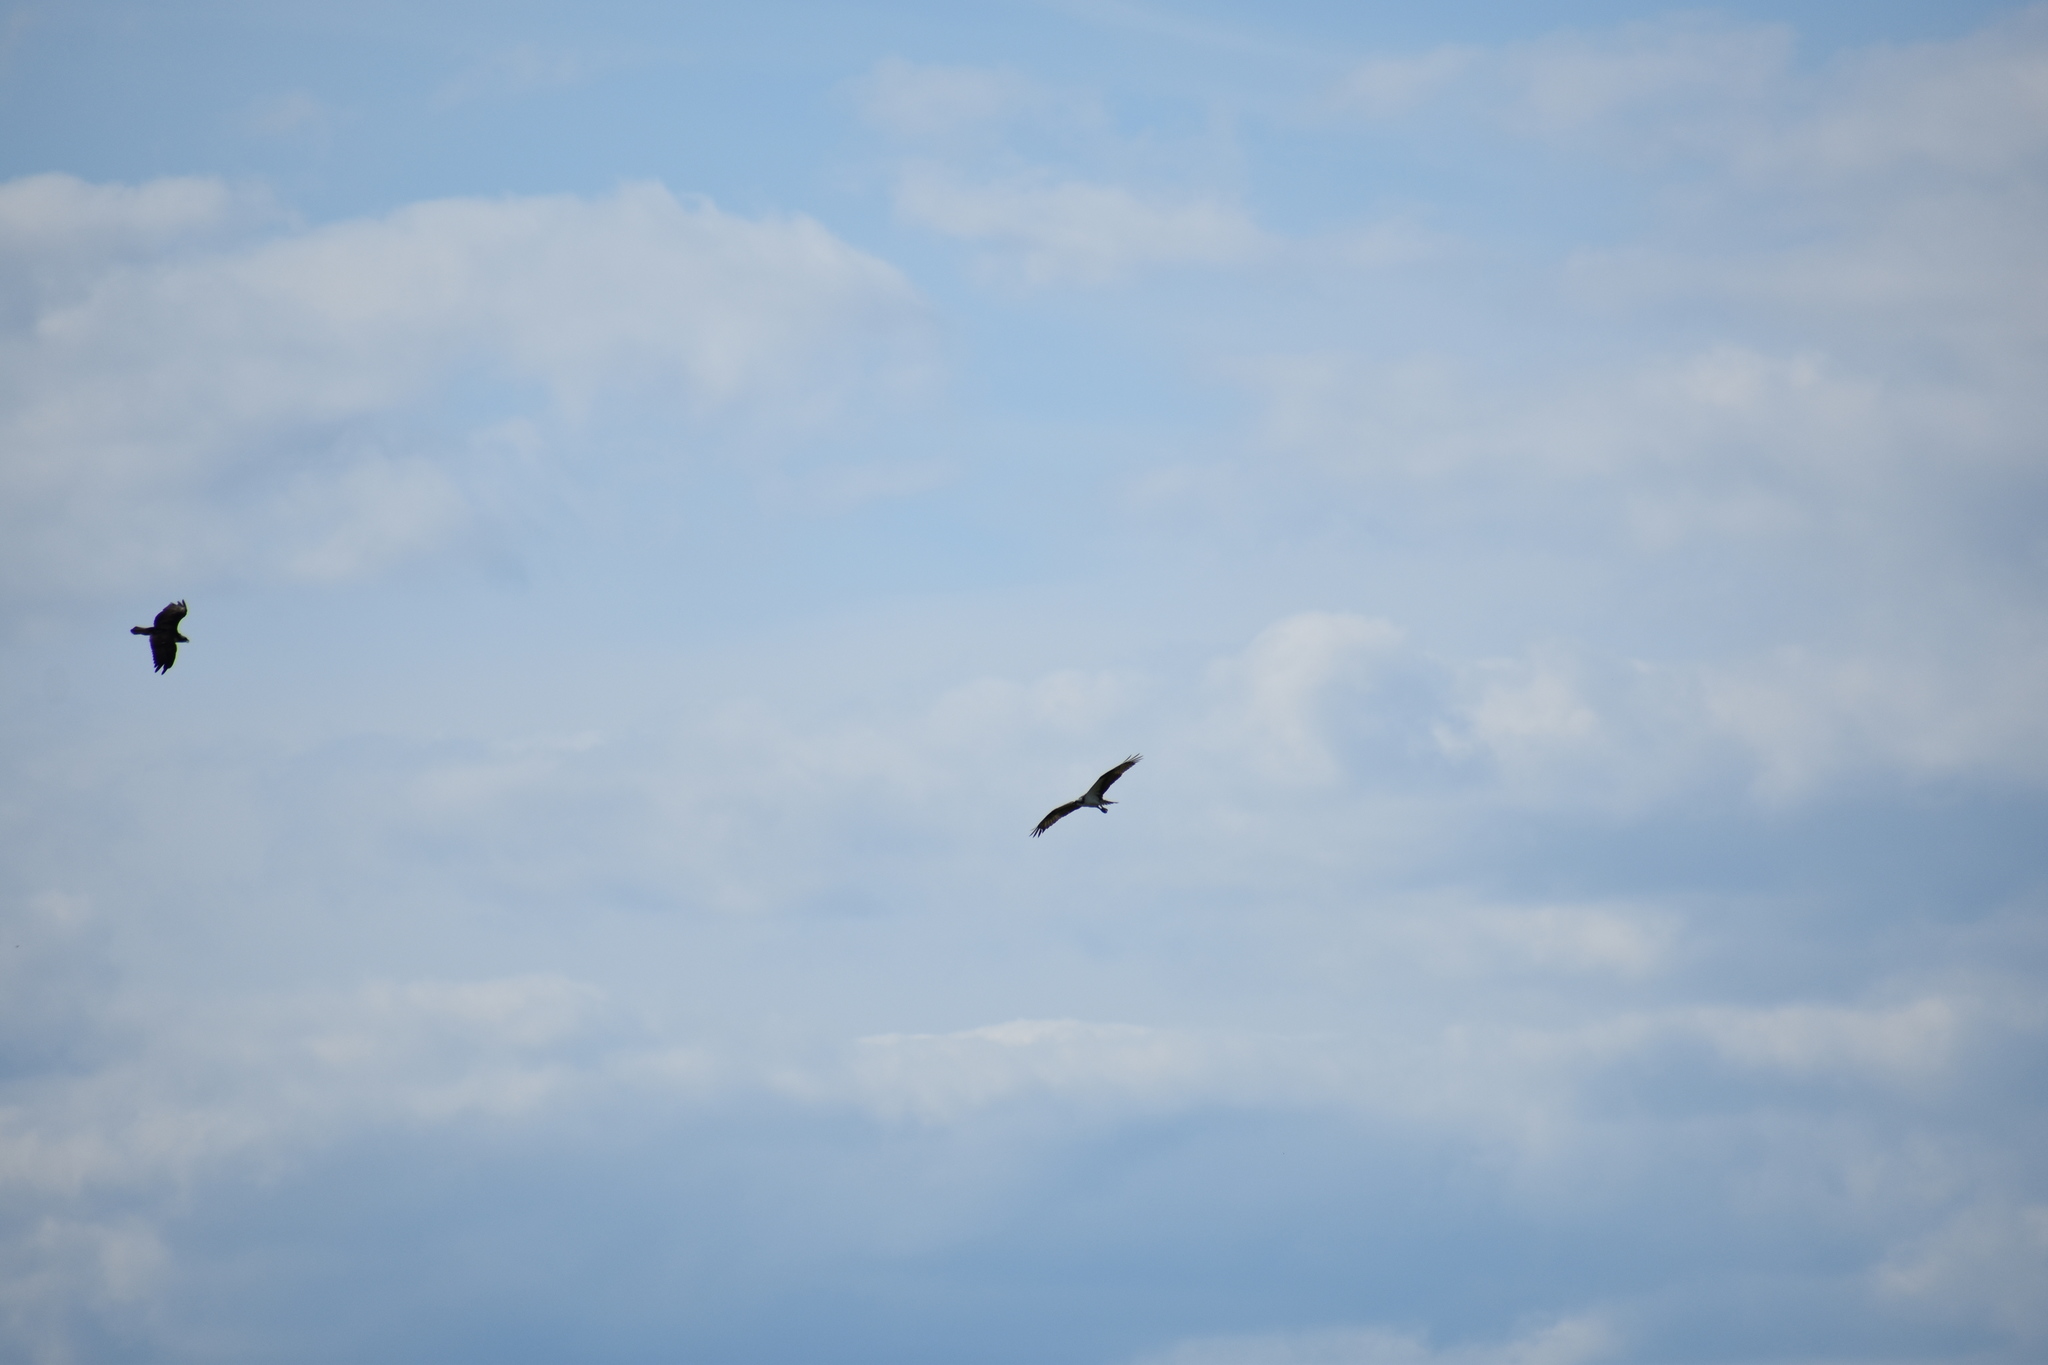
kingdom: Animalia
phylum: Chordata
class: Aves
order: Accipitriformes
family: Pandionidae
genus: Pandion
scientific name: Pandion haliaetus
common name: Osprey
